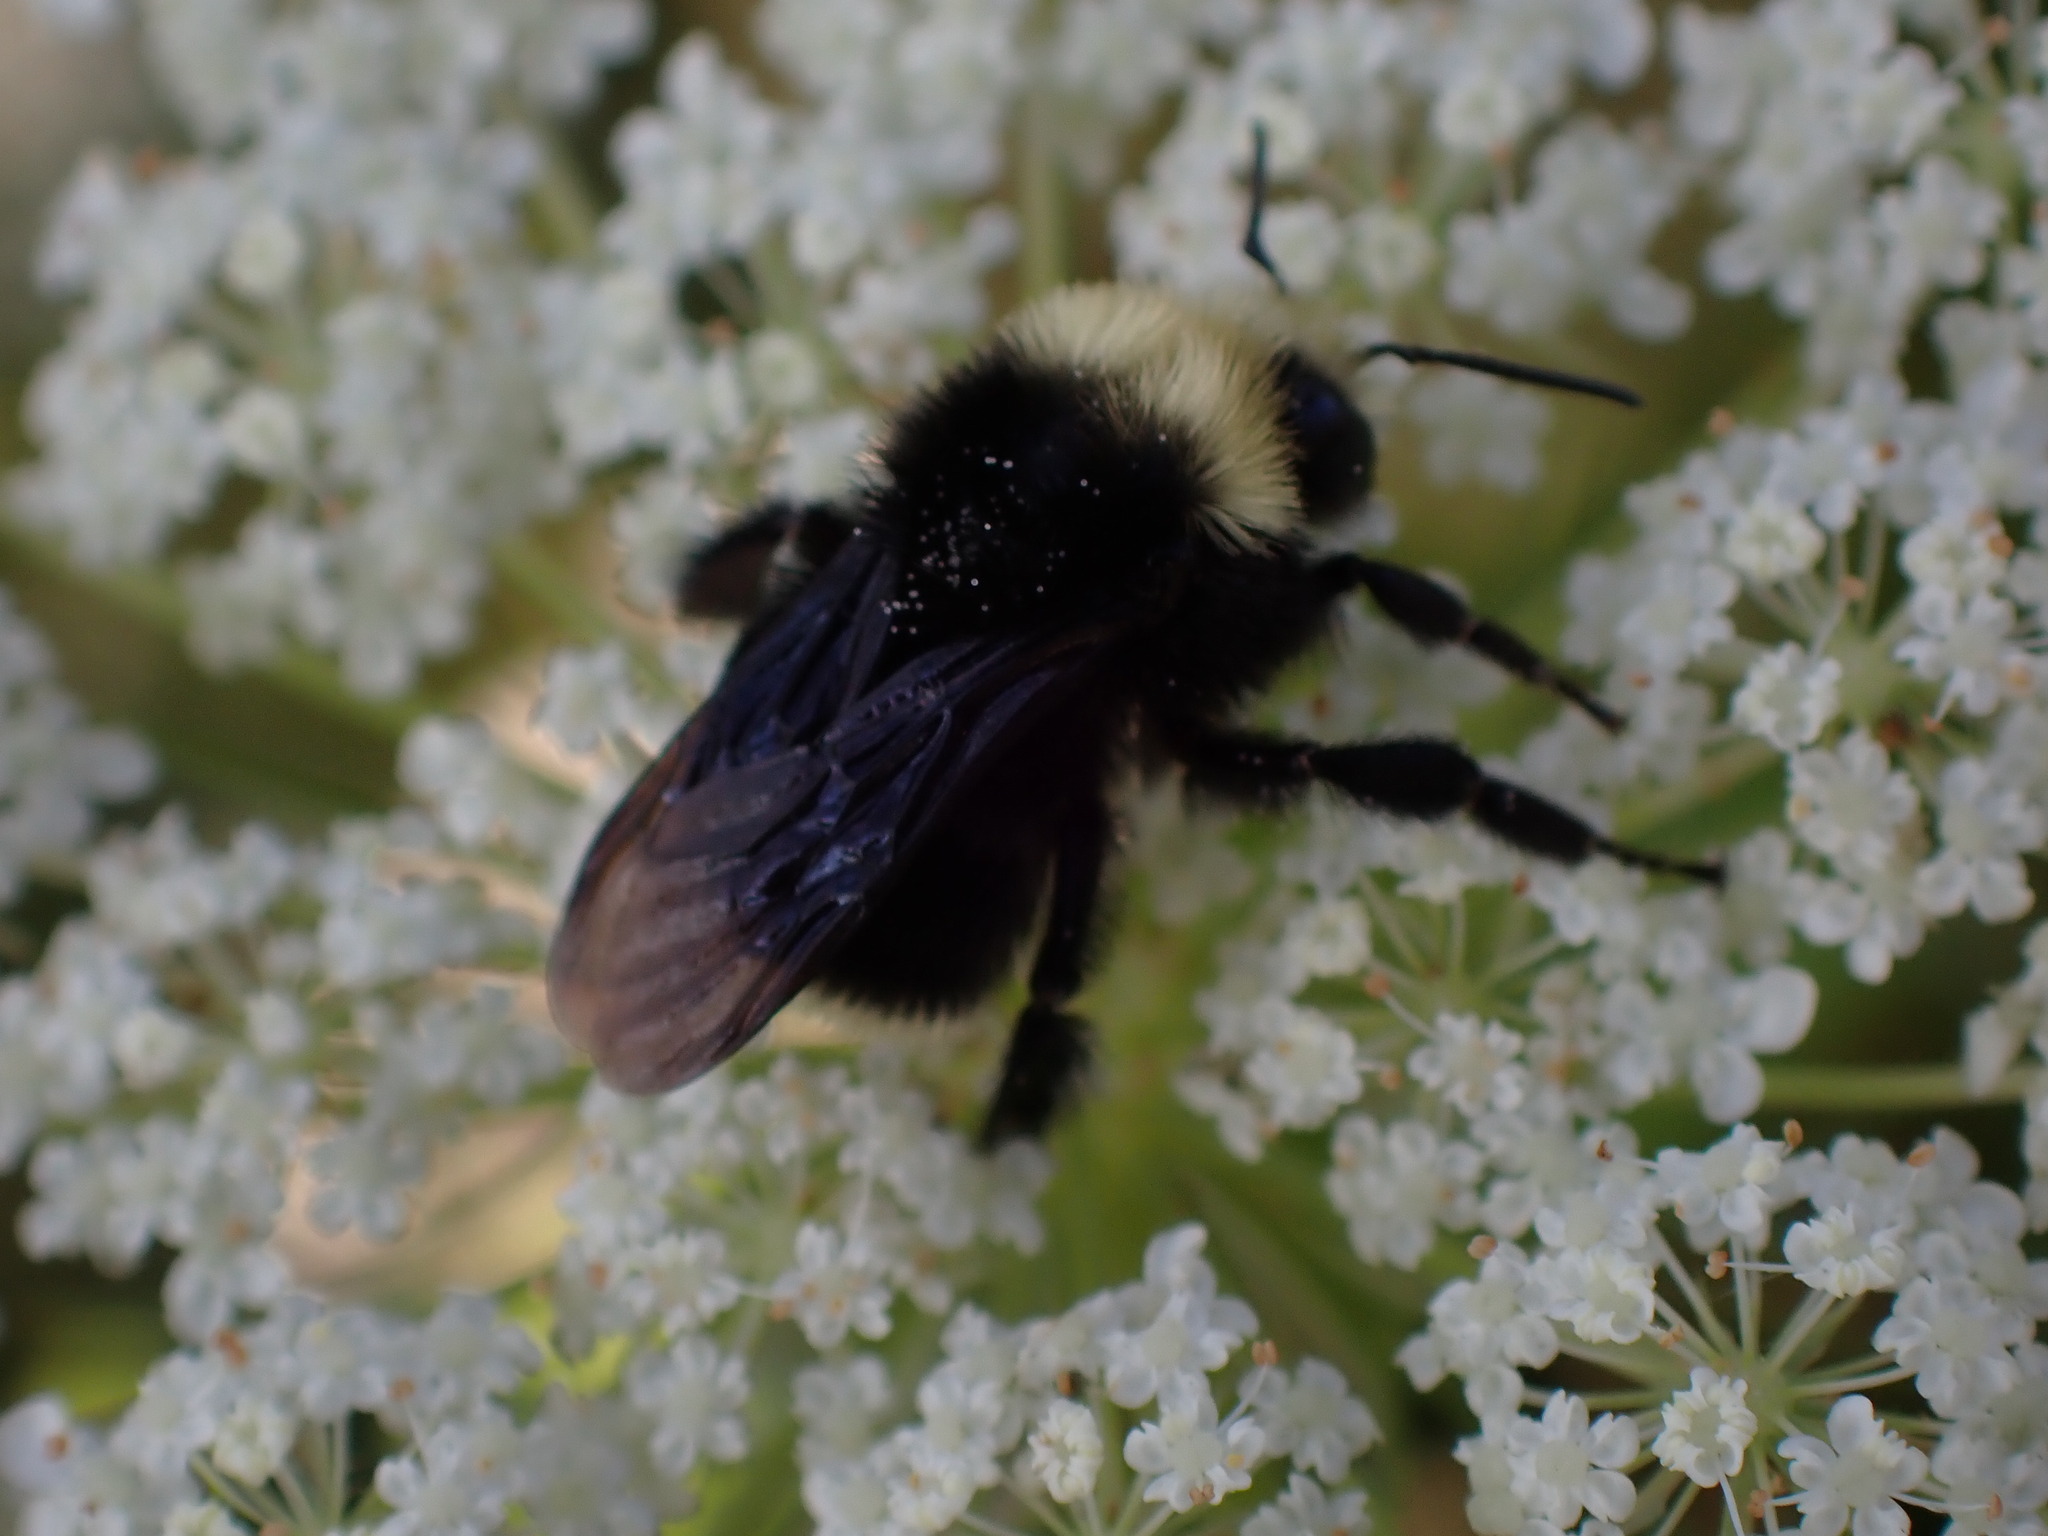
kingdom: Animalia
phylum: Arthropoda
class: Insecta
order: Hymenoptera
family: Apidae
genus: Bombus
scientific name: Bombus vosnesenskii
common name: Vosnesensky bumble bee
